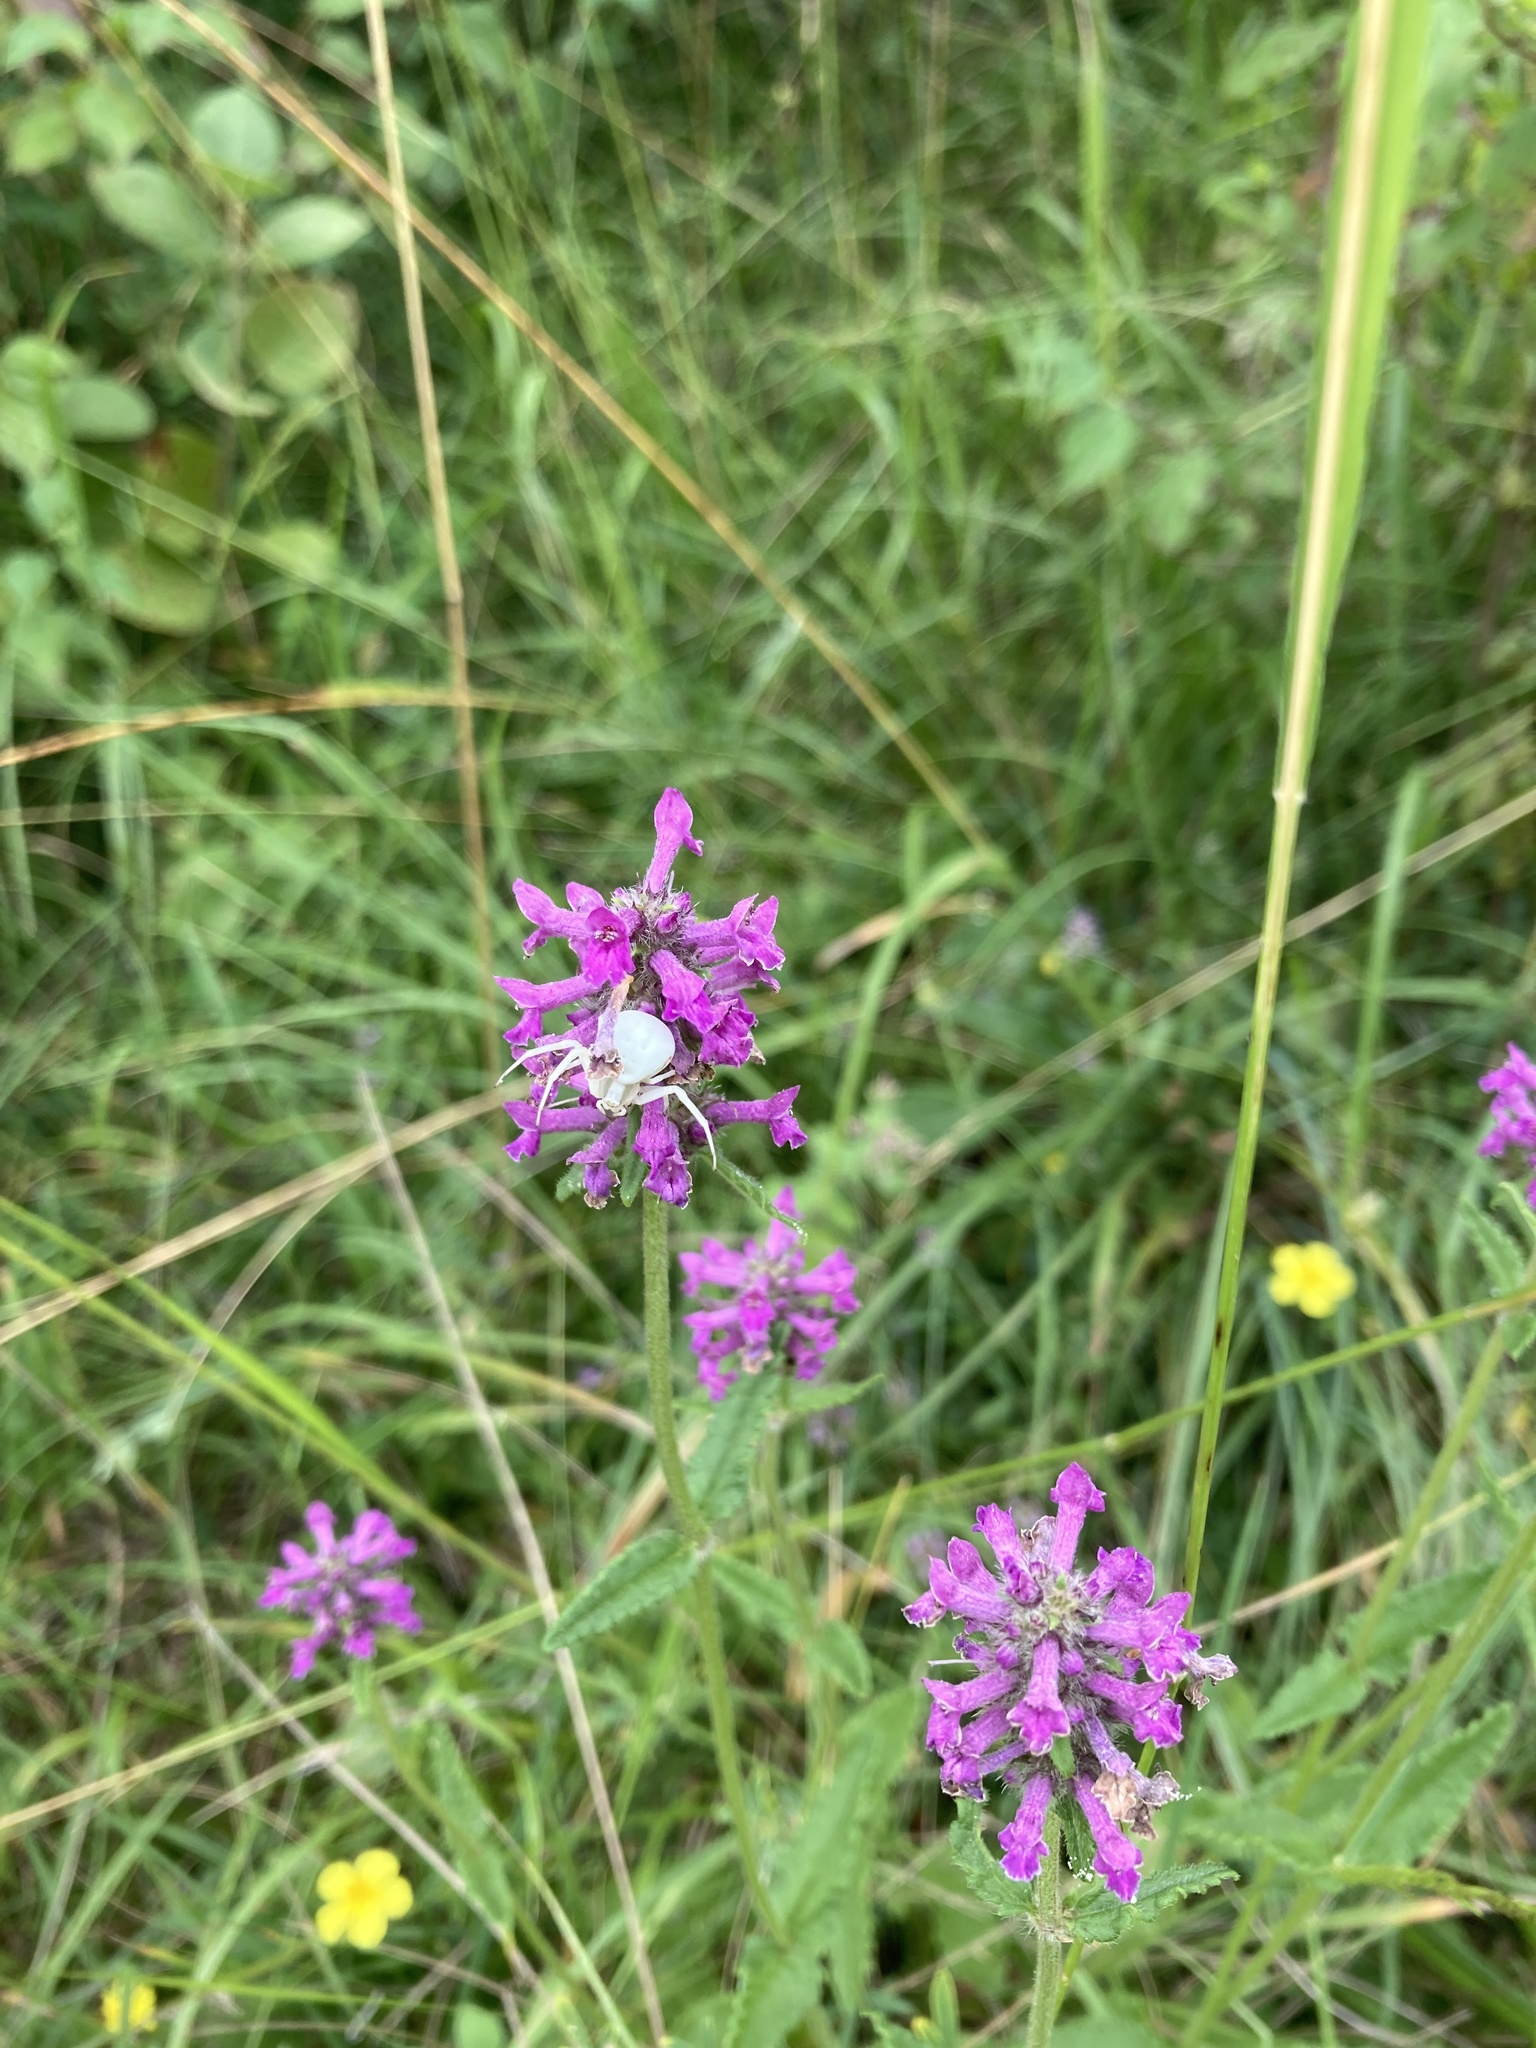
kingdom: Animalia
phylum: Arthropoda
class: Arachnida
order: Araneae
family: Thomisidae
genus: Misumena
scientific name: Misumena vatia
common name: Goldenrod crab spider
